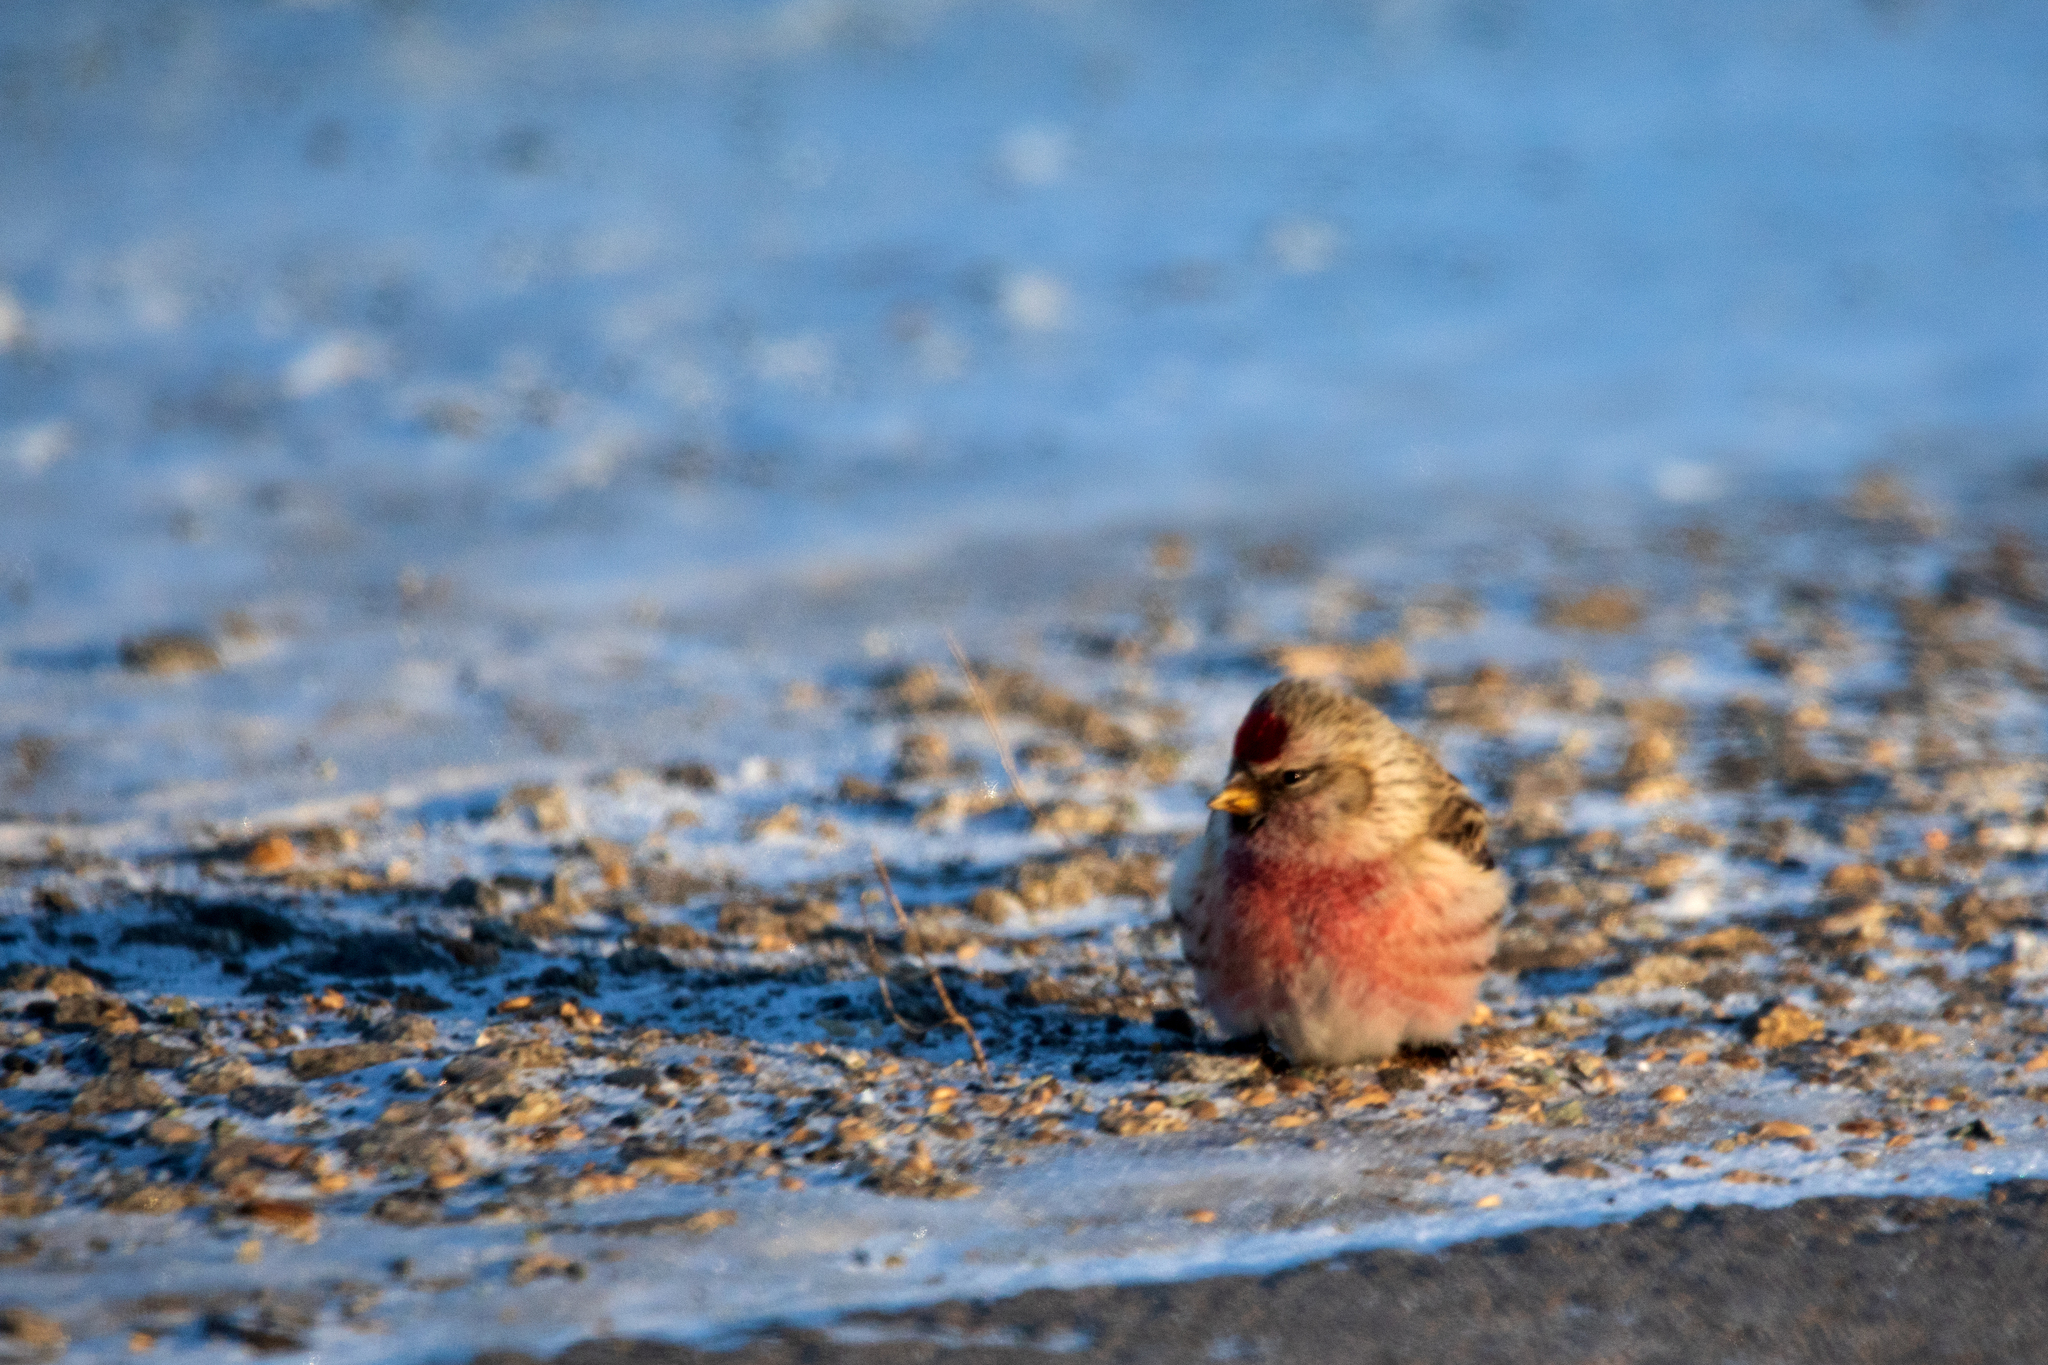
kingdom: Animalia
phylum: Chordata
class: Aves
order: Passeriformes
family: Fringillidae
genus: Acanthis
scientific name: Acanthis flammea
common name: Common redpoll
